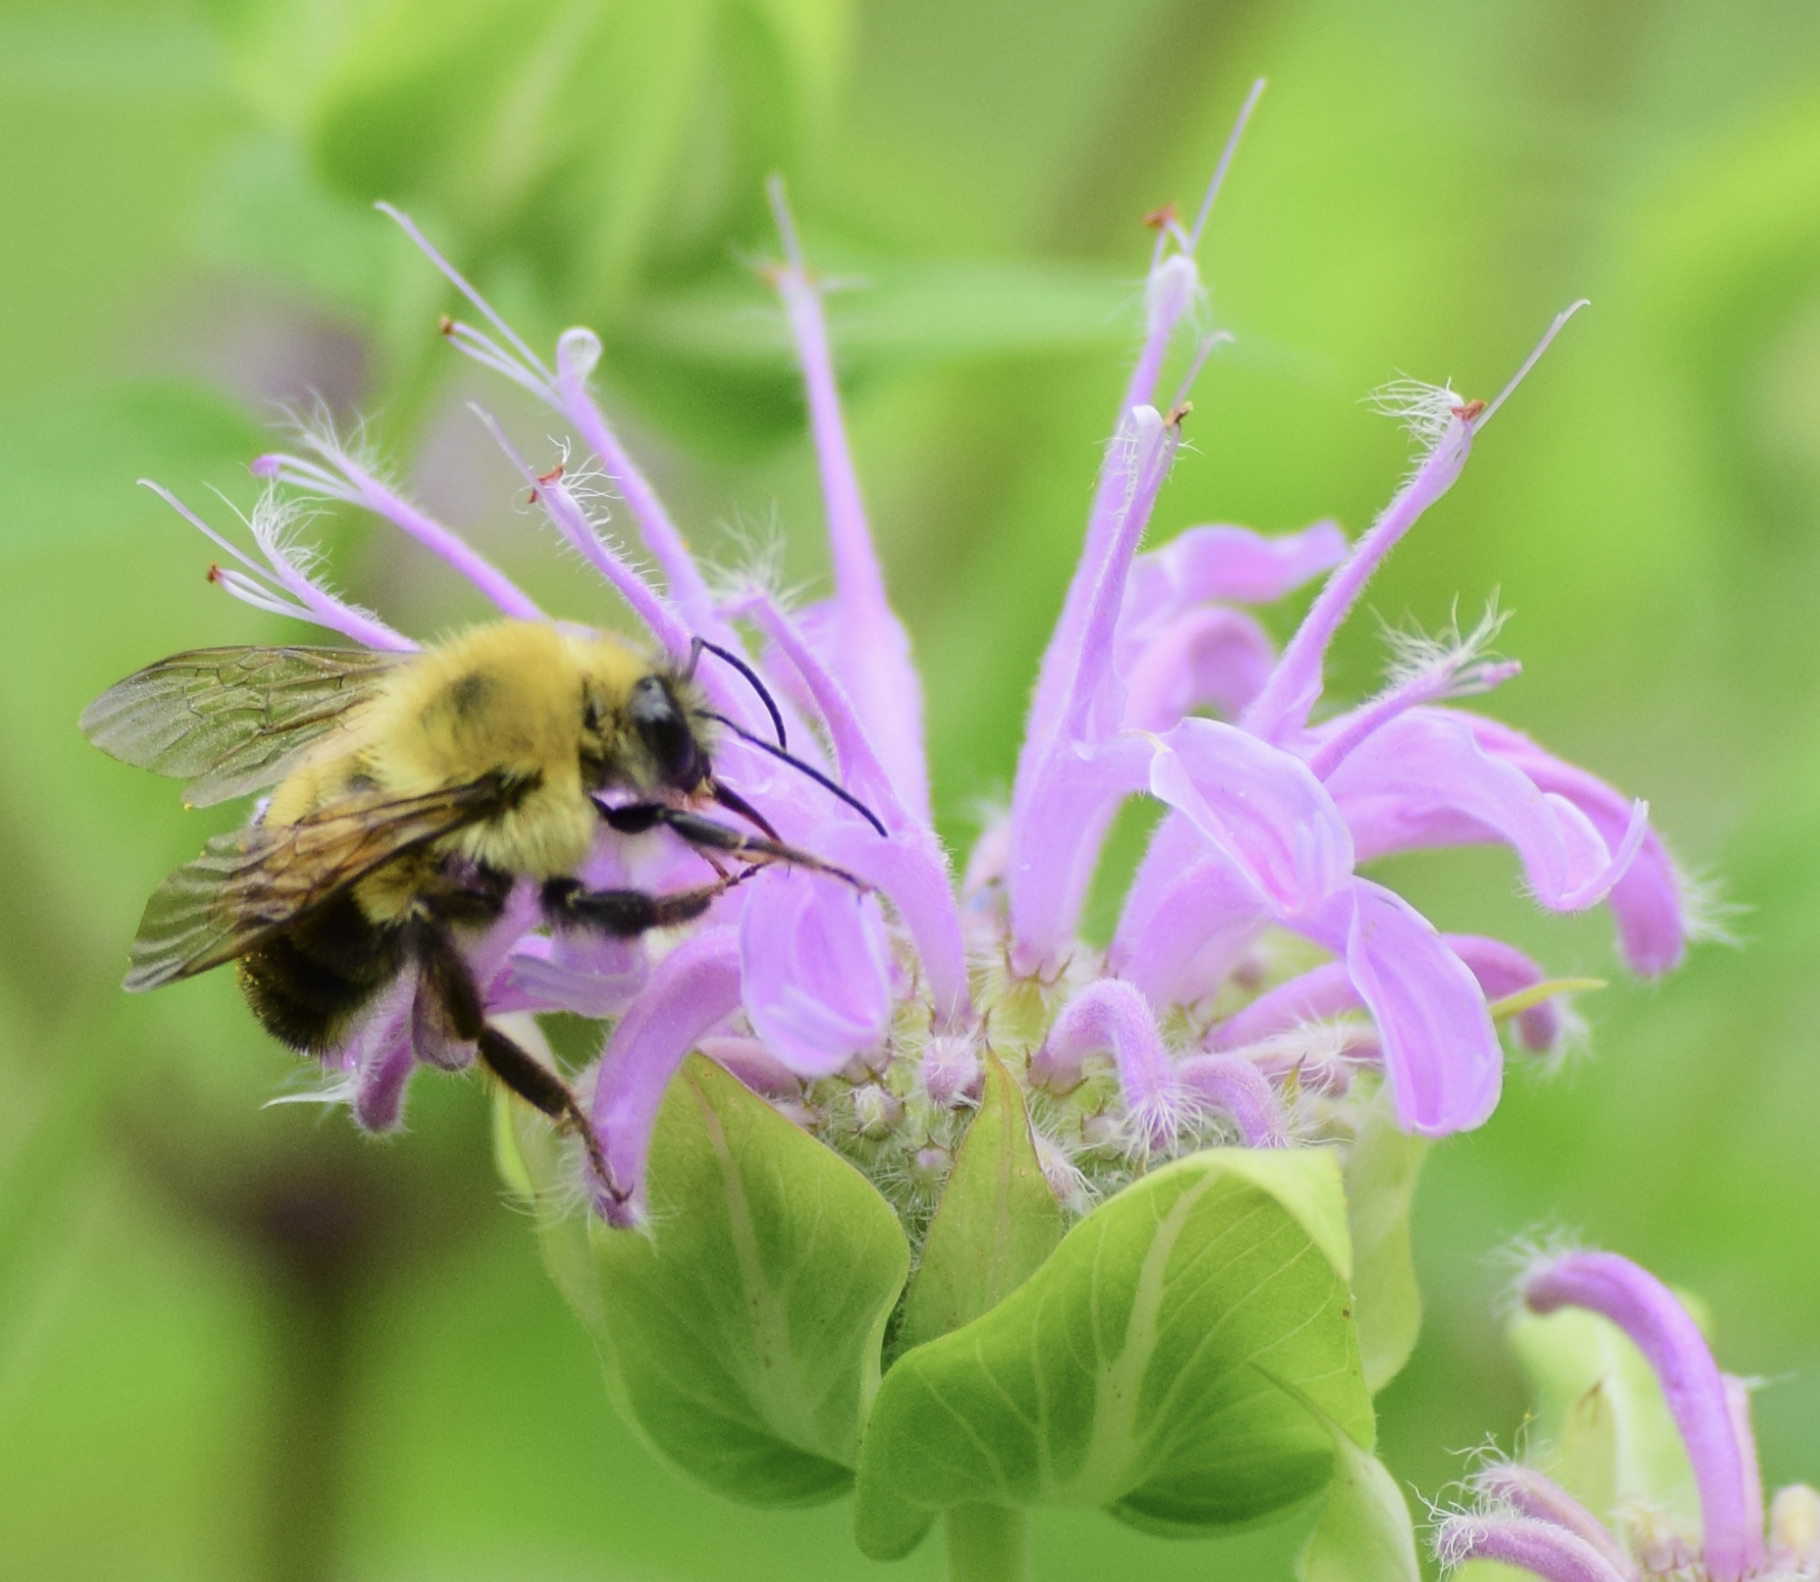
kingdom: Animalia
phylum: Arthropoda
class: Insecta
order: Hymenoptera
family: Apidae
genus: Bombus
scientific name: Bombus bimaculatus
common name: Two-spotted bumble bee
